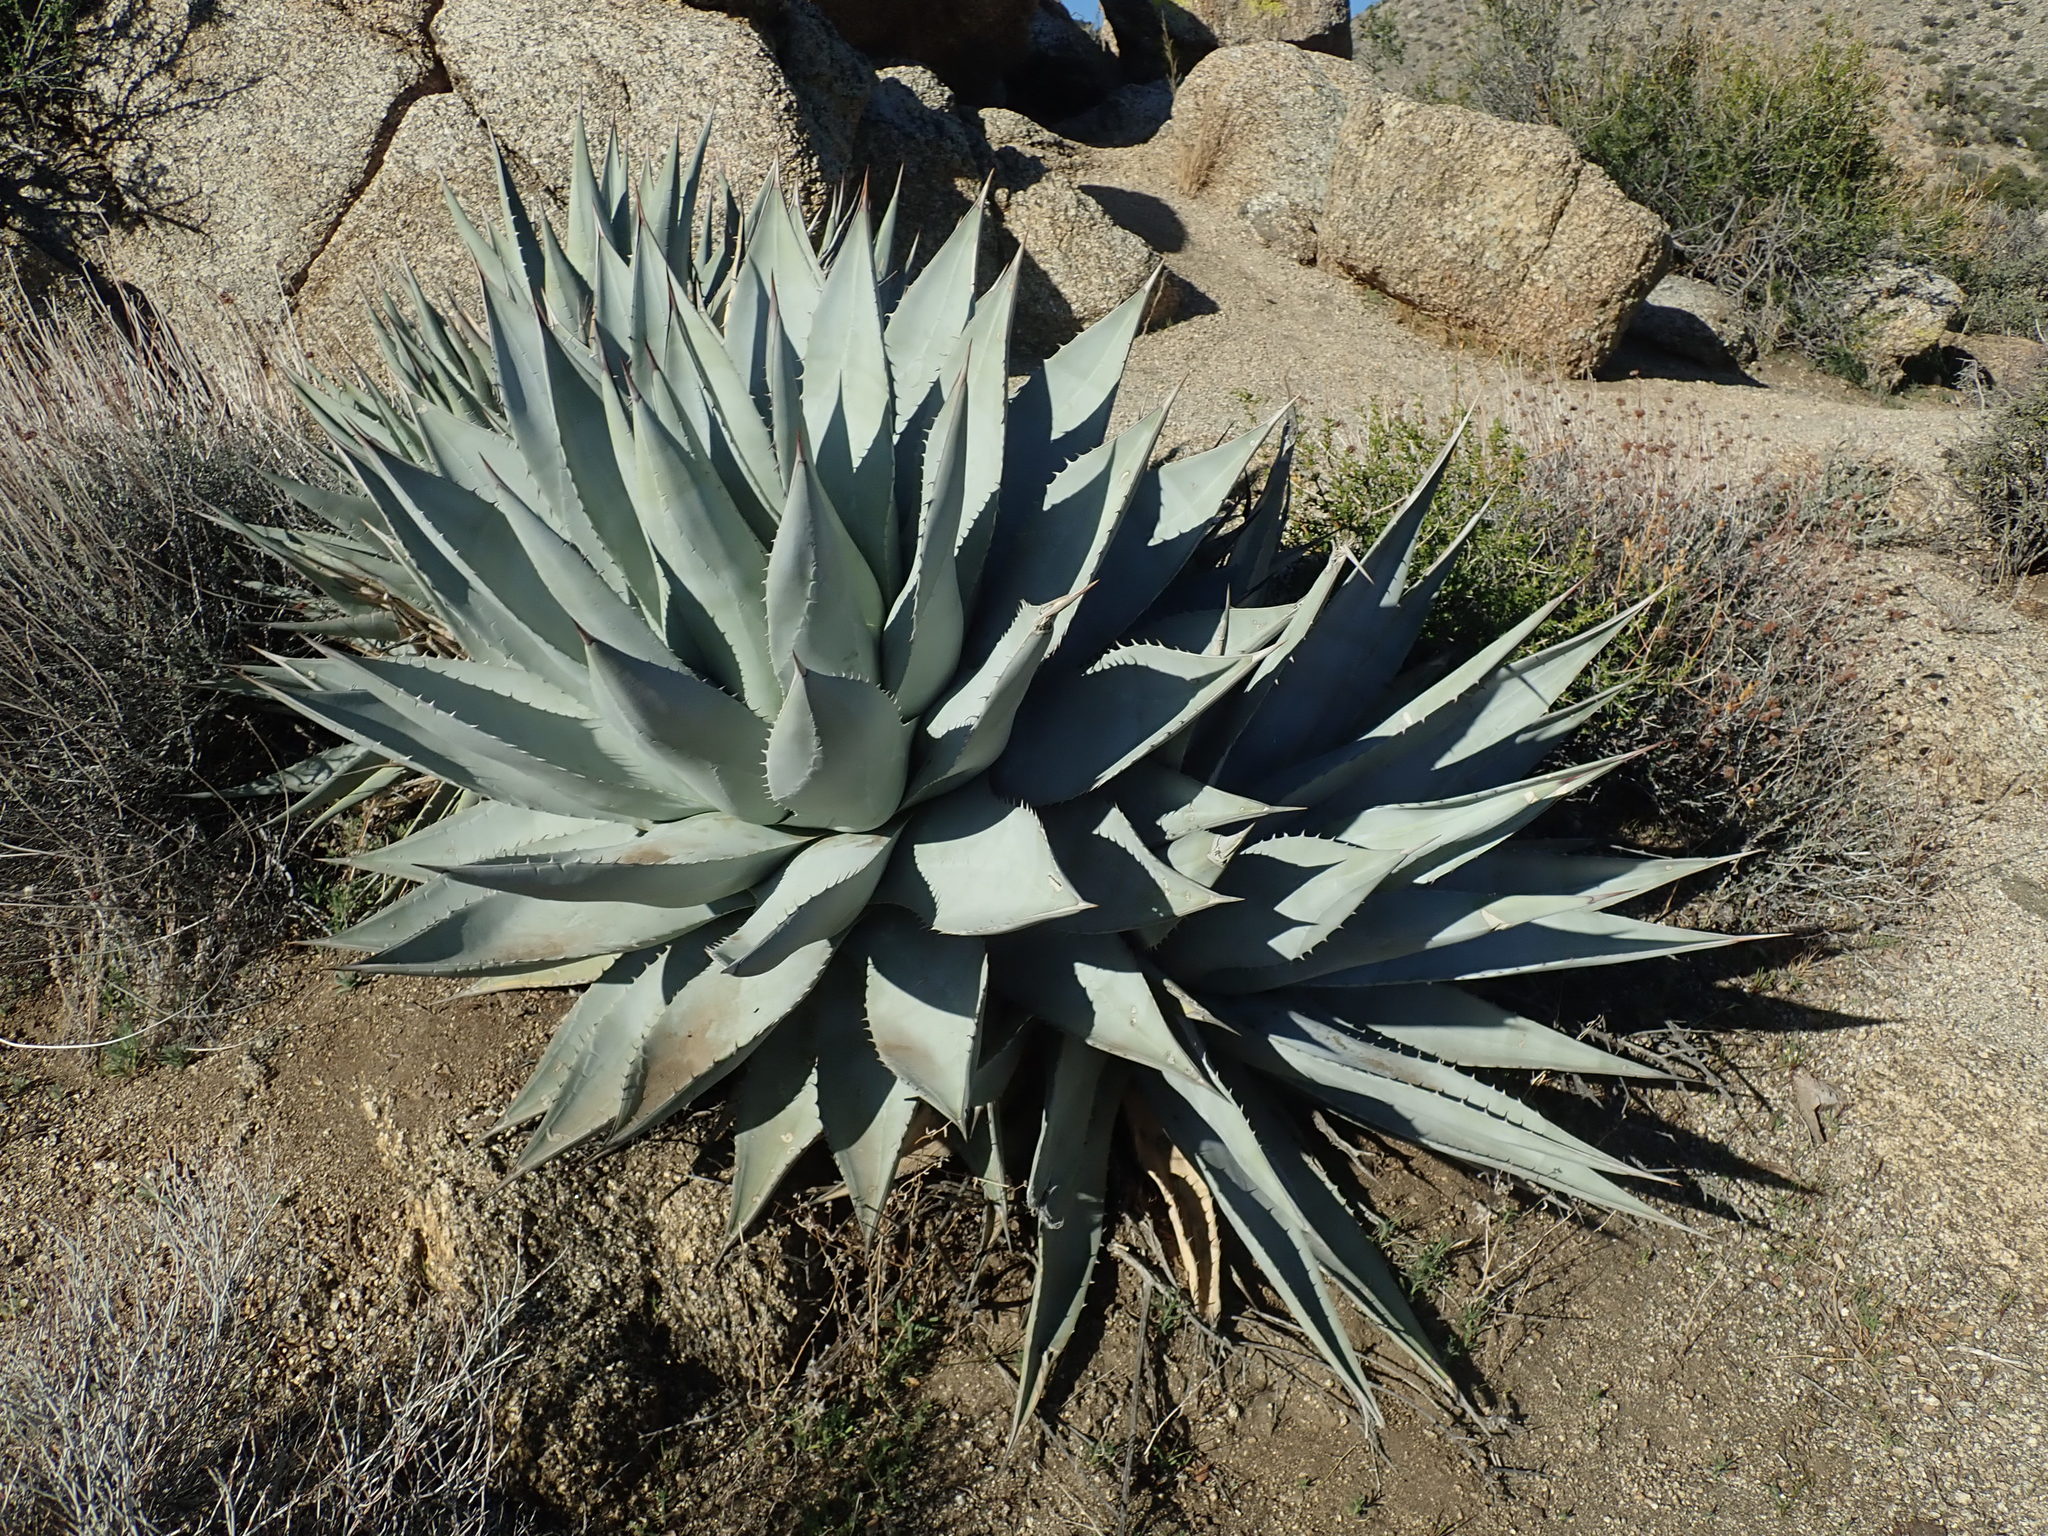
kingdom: Plantae
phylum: Tracheophyta
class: Liliopsida
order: Asparagales
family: Asparagaceae
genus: Agave
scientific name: Agave deserti
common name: Desert agave
